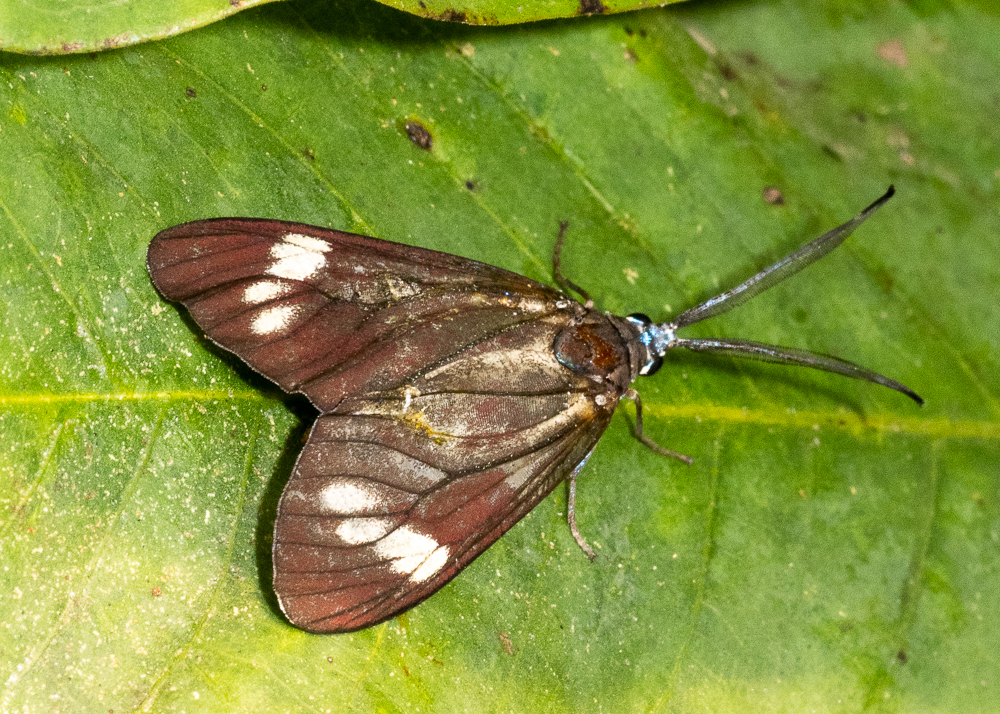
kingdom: Animalia
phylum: Arthropoda
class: Insecta
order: Lepidoptera
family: Zygaenidae
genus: Cyclosia
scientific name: Cyclosia papilionaris
